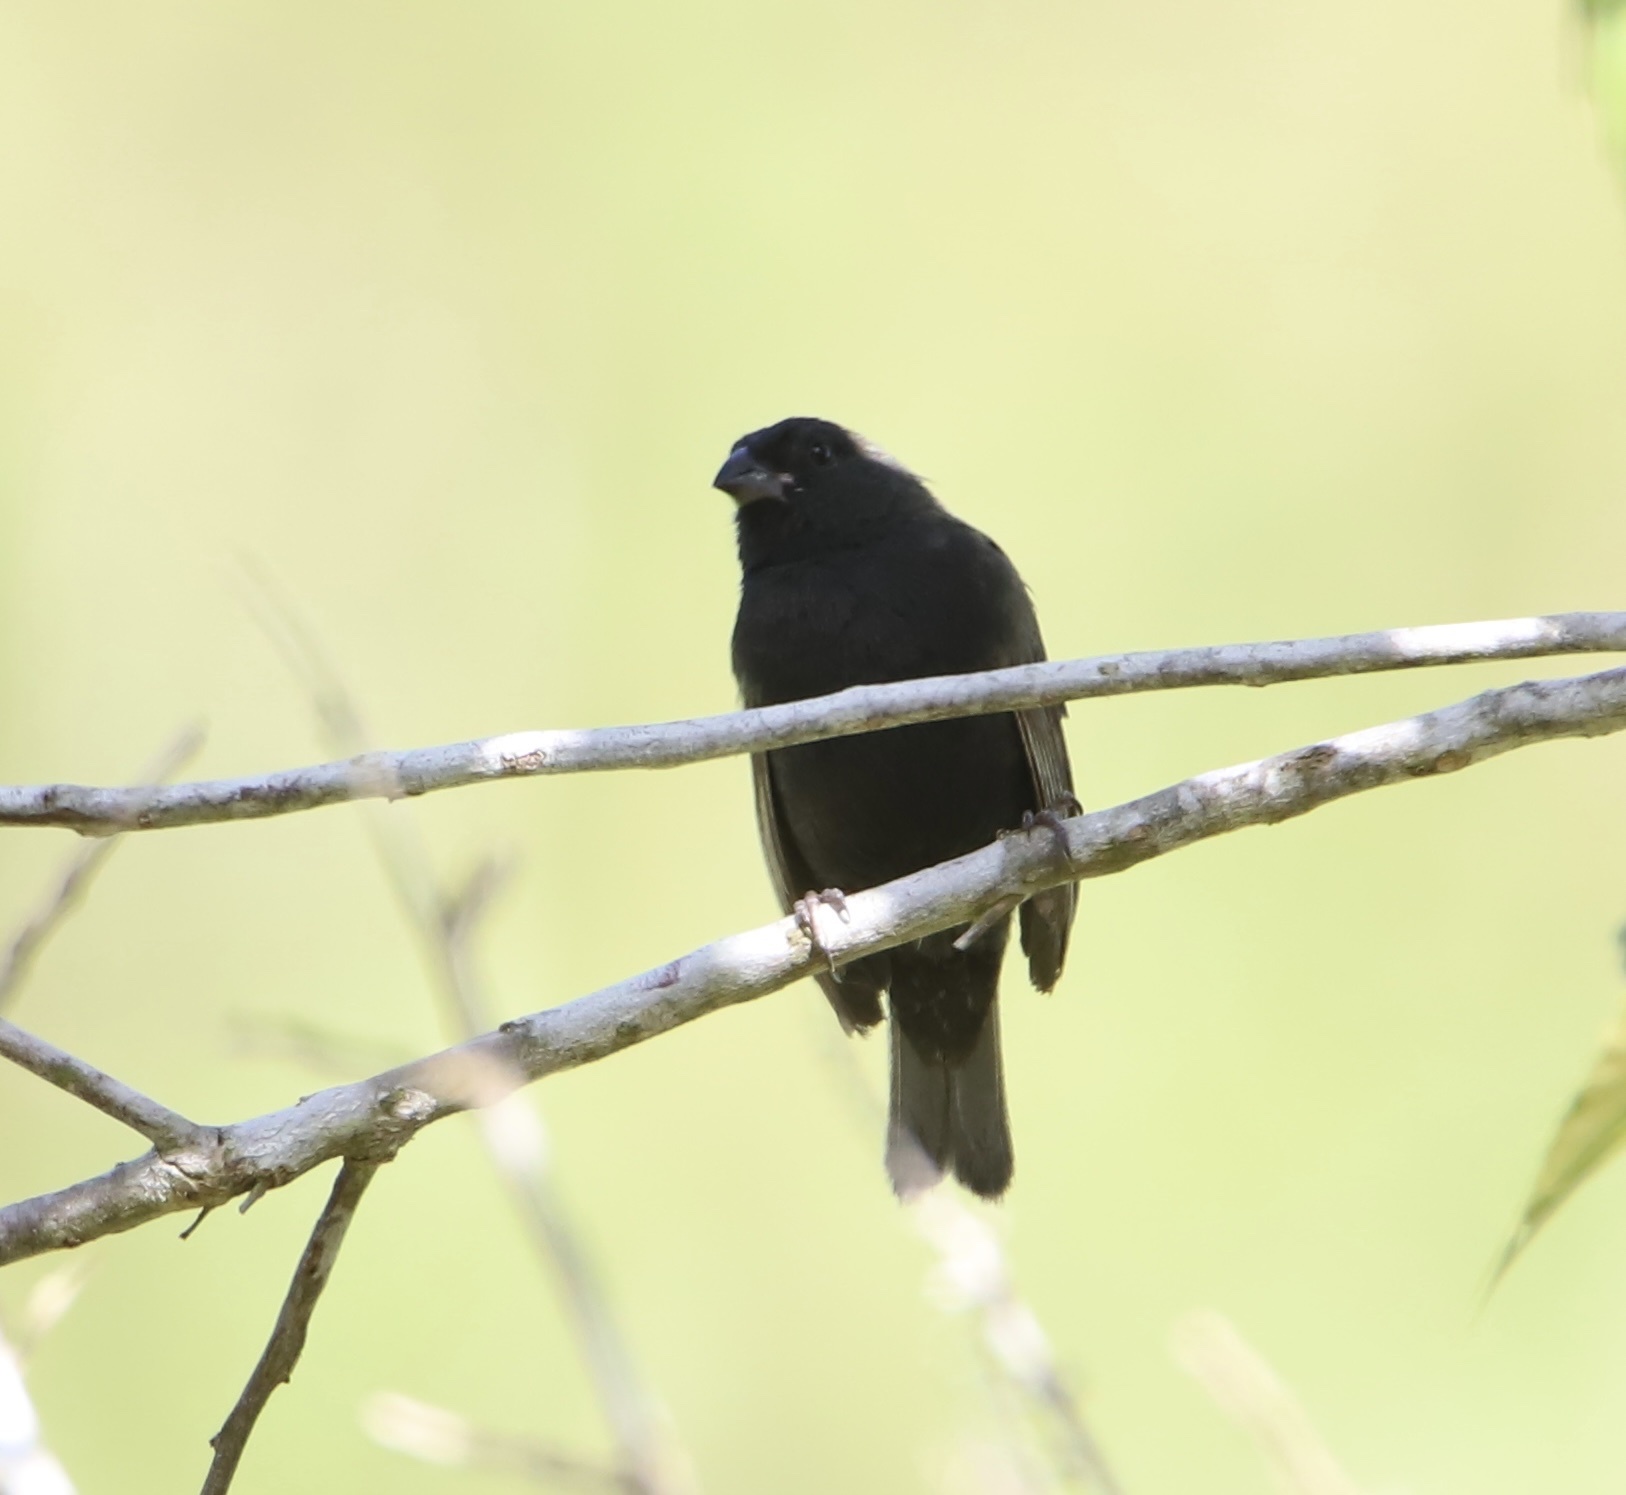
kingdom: Animalia
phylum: Chordata
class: Aves
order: Passeriformes
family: Thraupidae
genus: Melanospiza
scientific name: Melanospiza bicolor
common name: Black-faced grassquit
